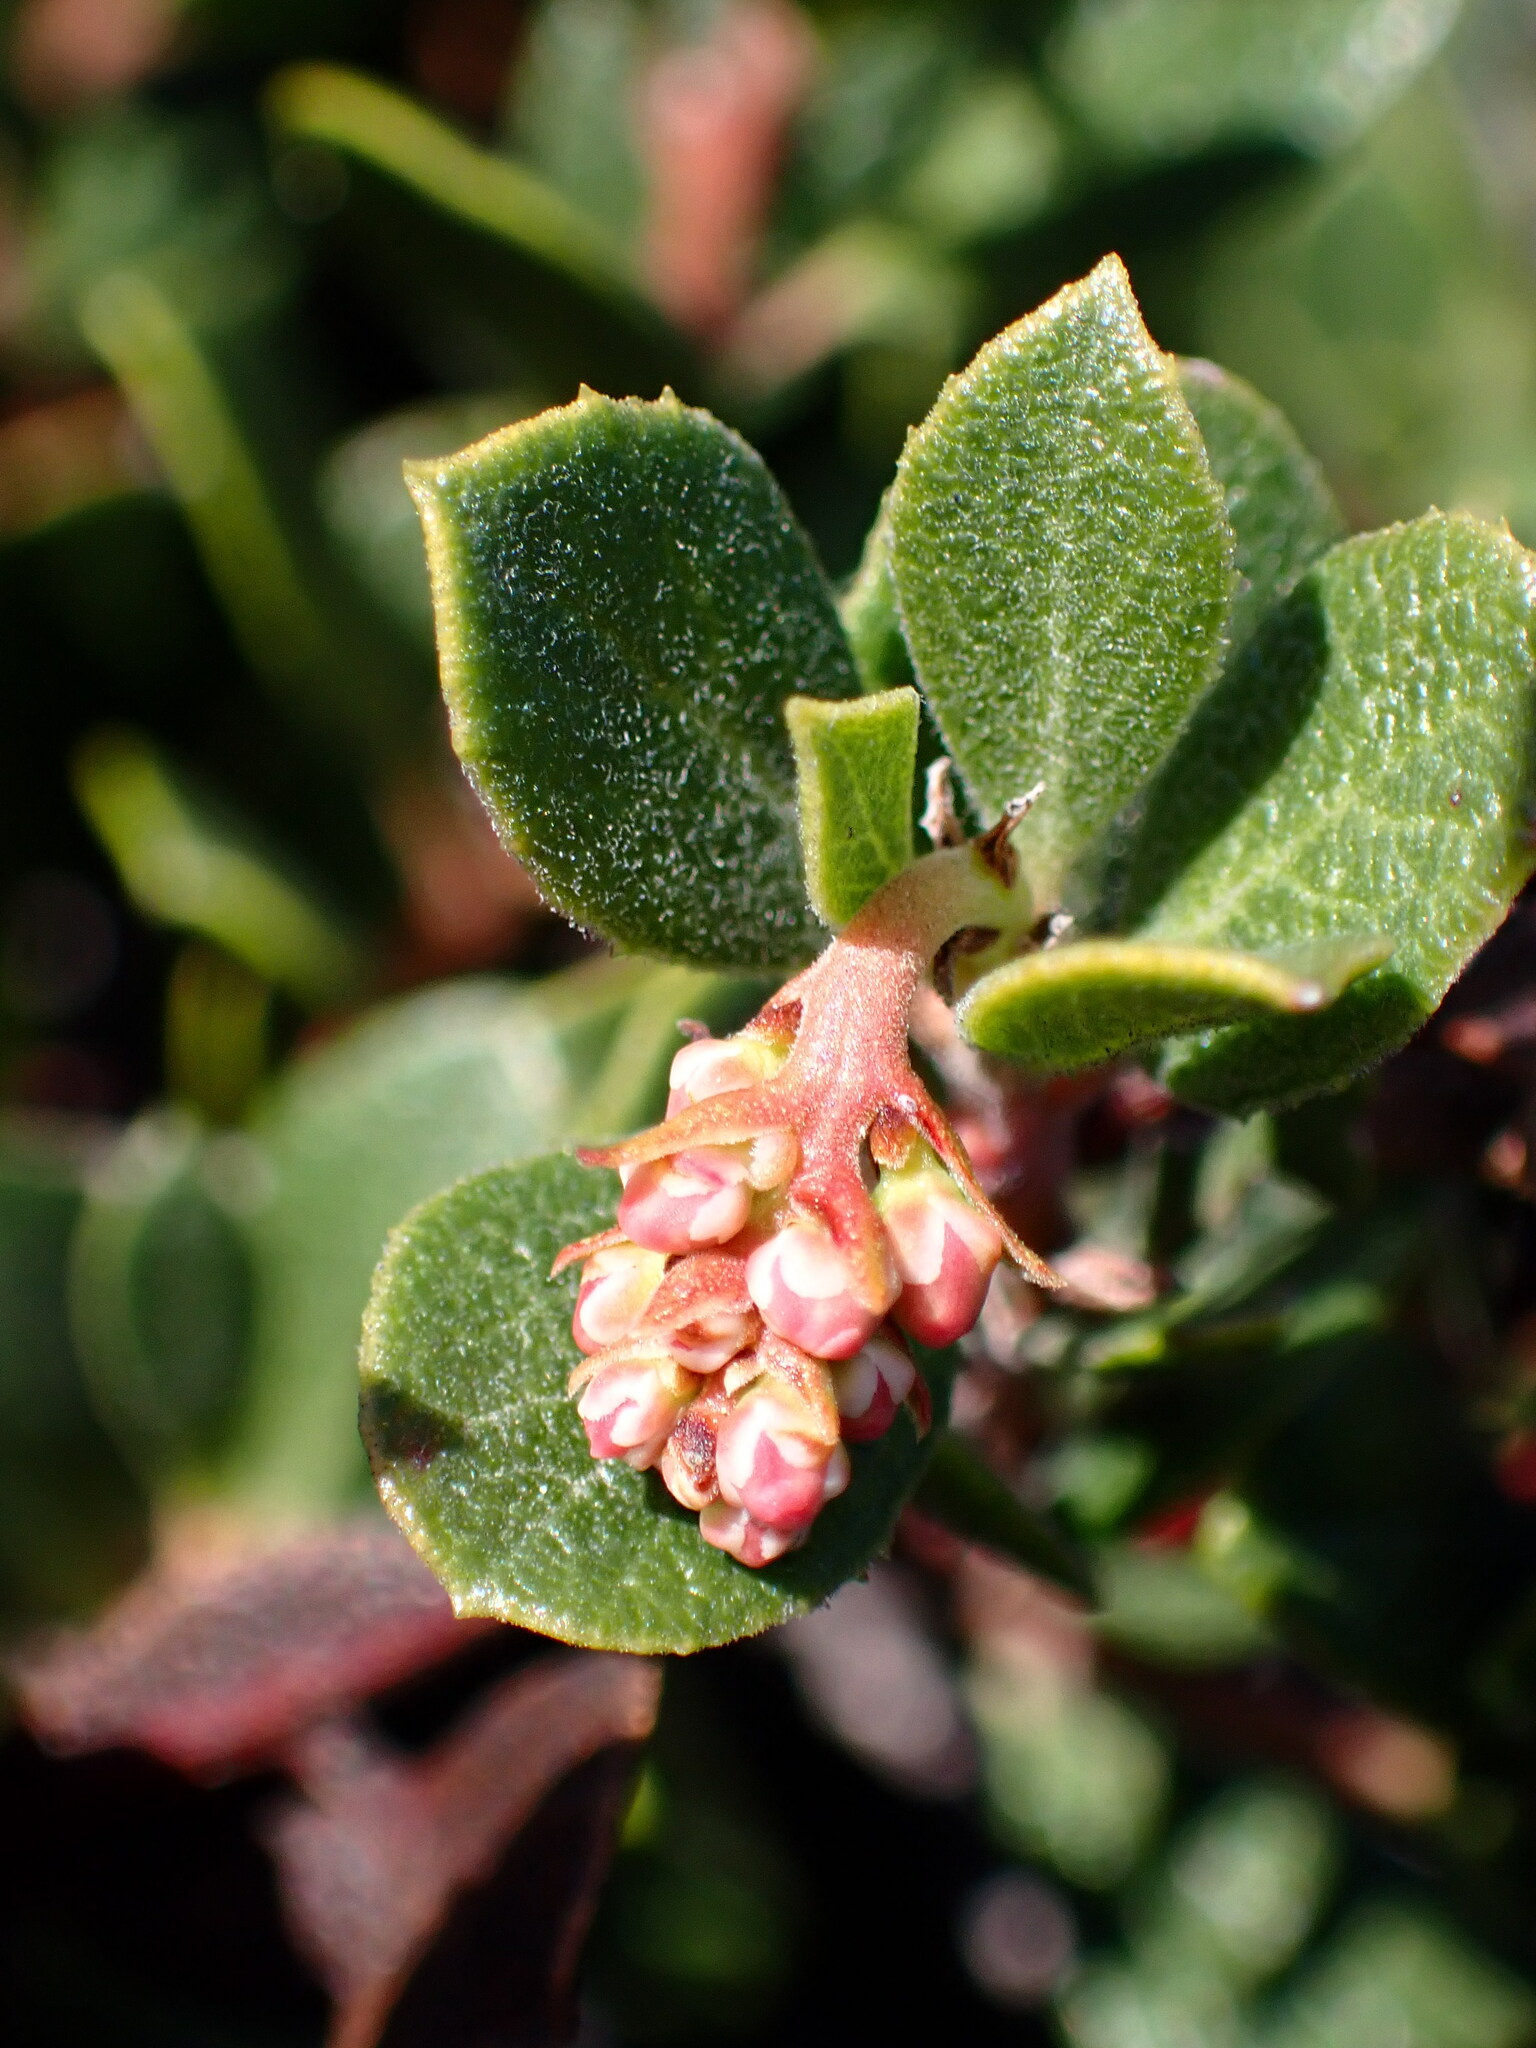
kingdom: Plantae
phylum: Tracheophyta
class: Magnoliopsida
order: Ericales
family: Ericaceae
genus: Arctostaphylos
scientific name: Arctostaphylos pacifica
